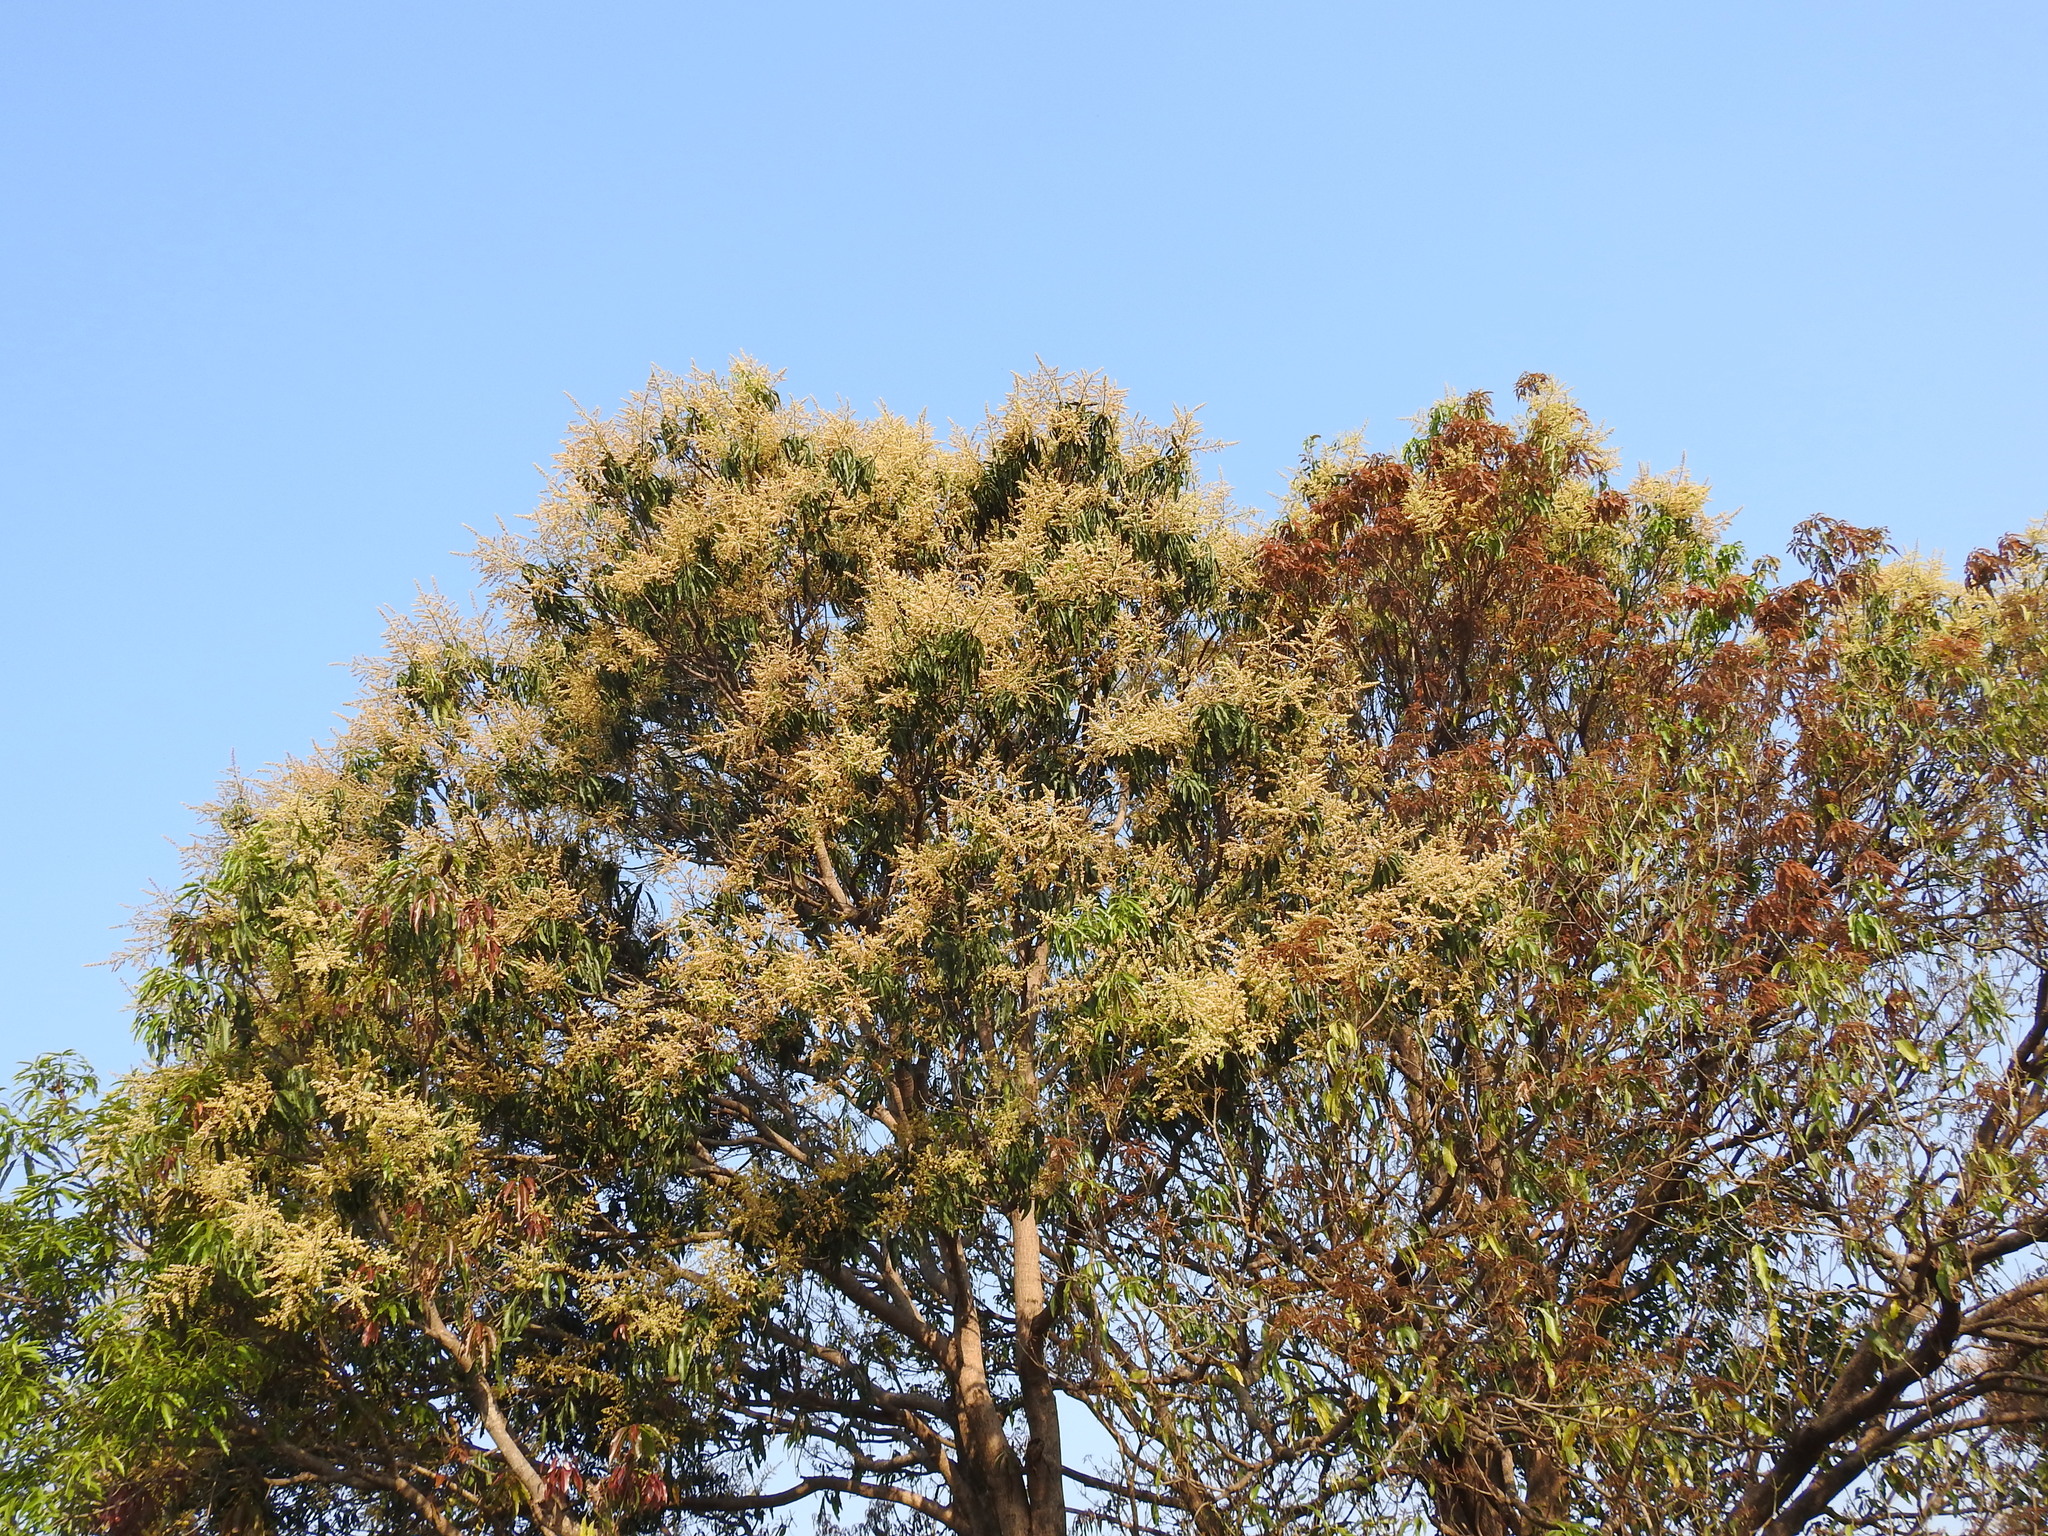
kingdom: Plantae
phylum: Tracheophyta
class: Magnoliopsida
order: Sapindales
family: Anacardiaceae
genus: Mangifera
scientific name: Mangifera indica
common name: Mango
